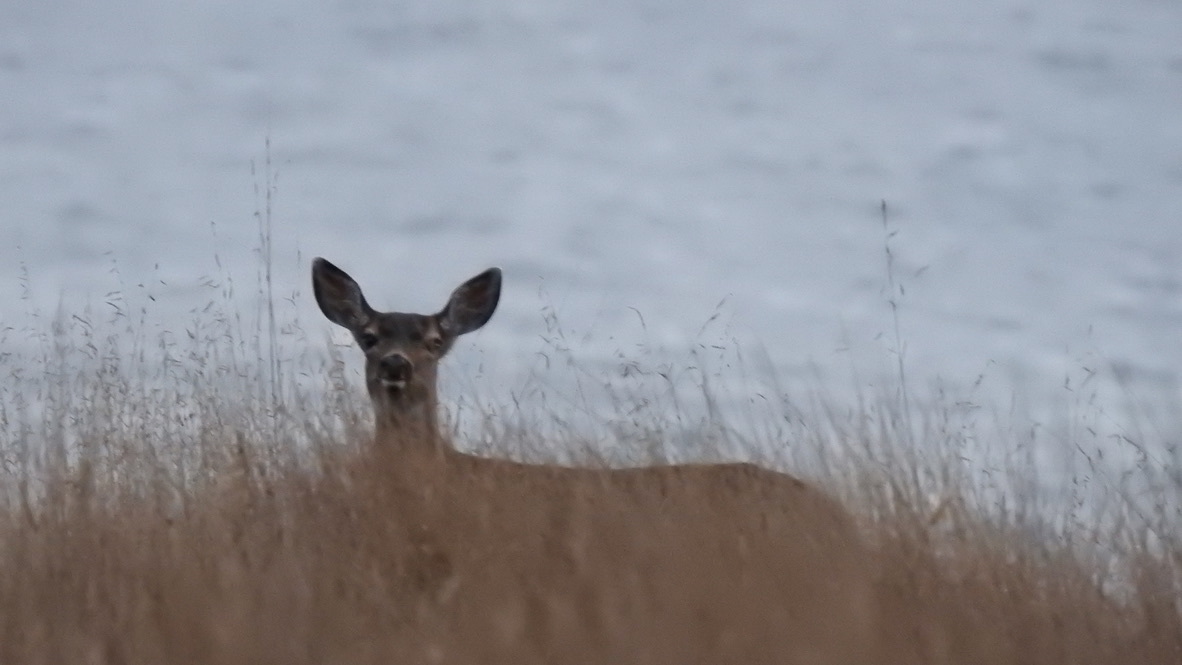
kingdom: Animalia
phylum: Chordata
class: Mammalia
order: Artiodactyla
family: Cervidae
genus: Odocoileus
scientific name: Odocoileus hemionus
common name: Mule deer
